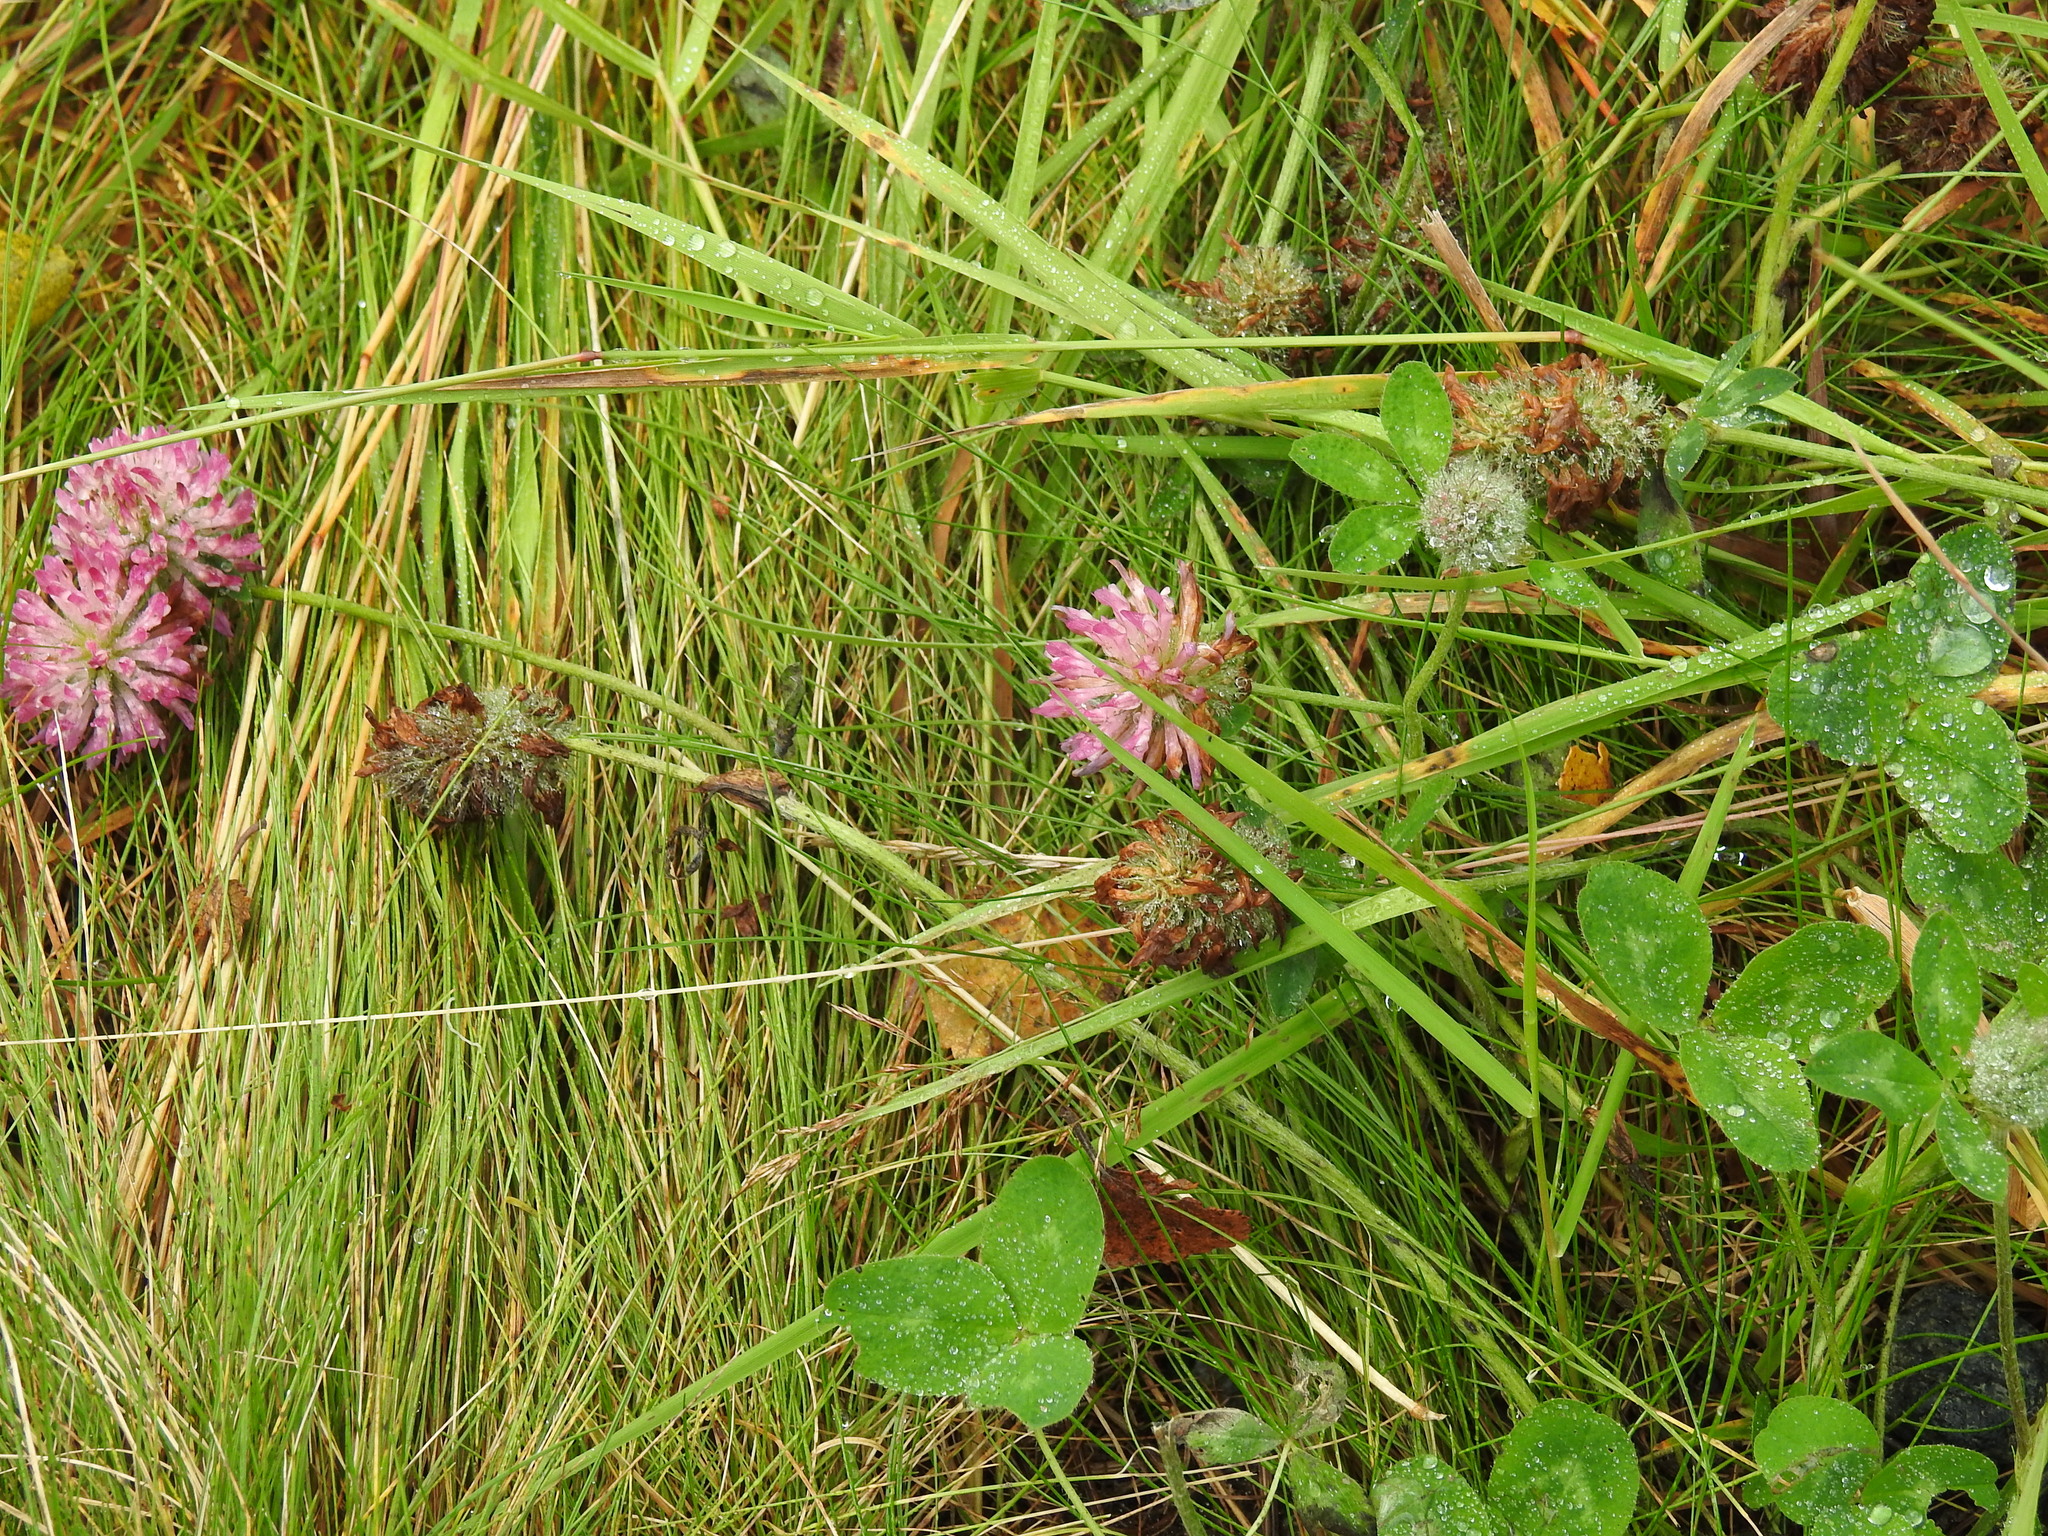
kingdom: Plantae
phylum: Tracheophyta
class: Magnoliopsida
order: Fabales
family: Fabaceae
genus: Trifolium
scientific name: Trifolium pratense
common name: Red clover
